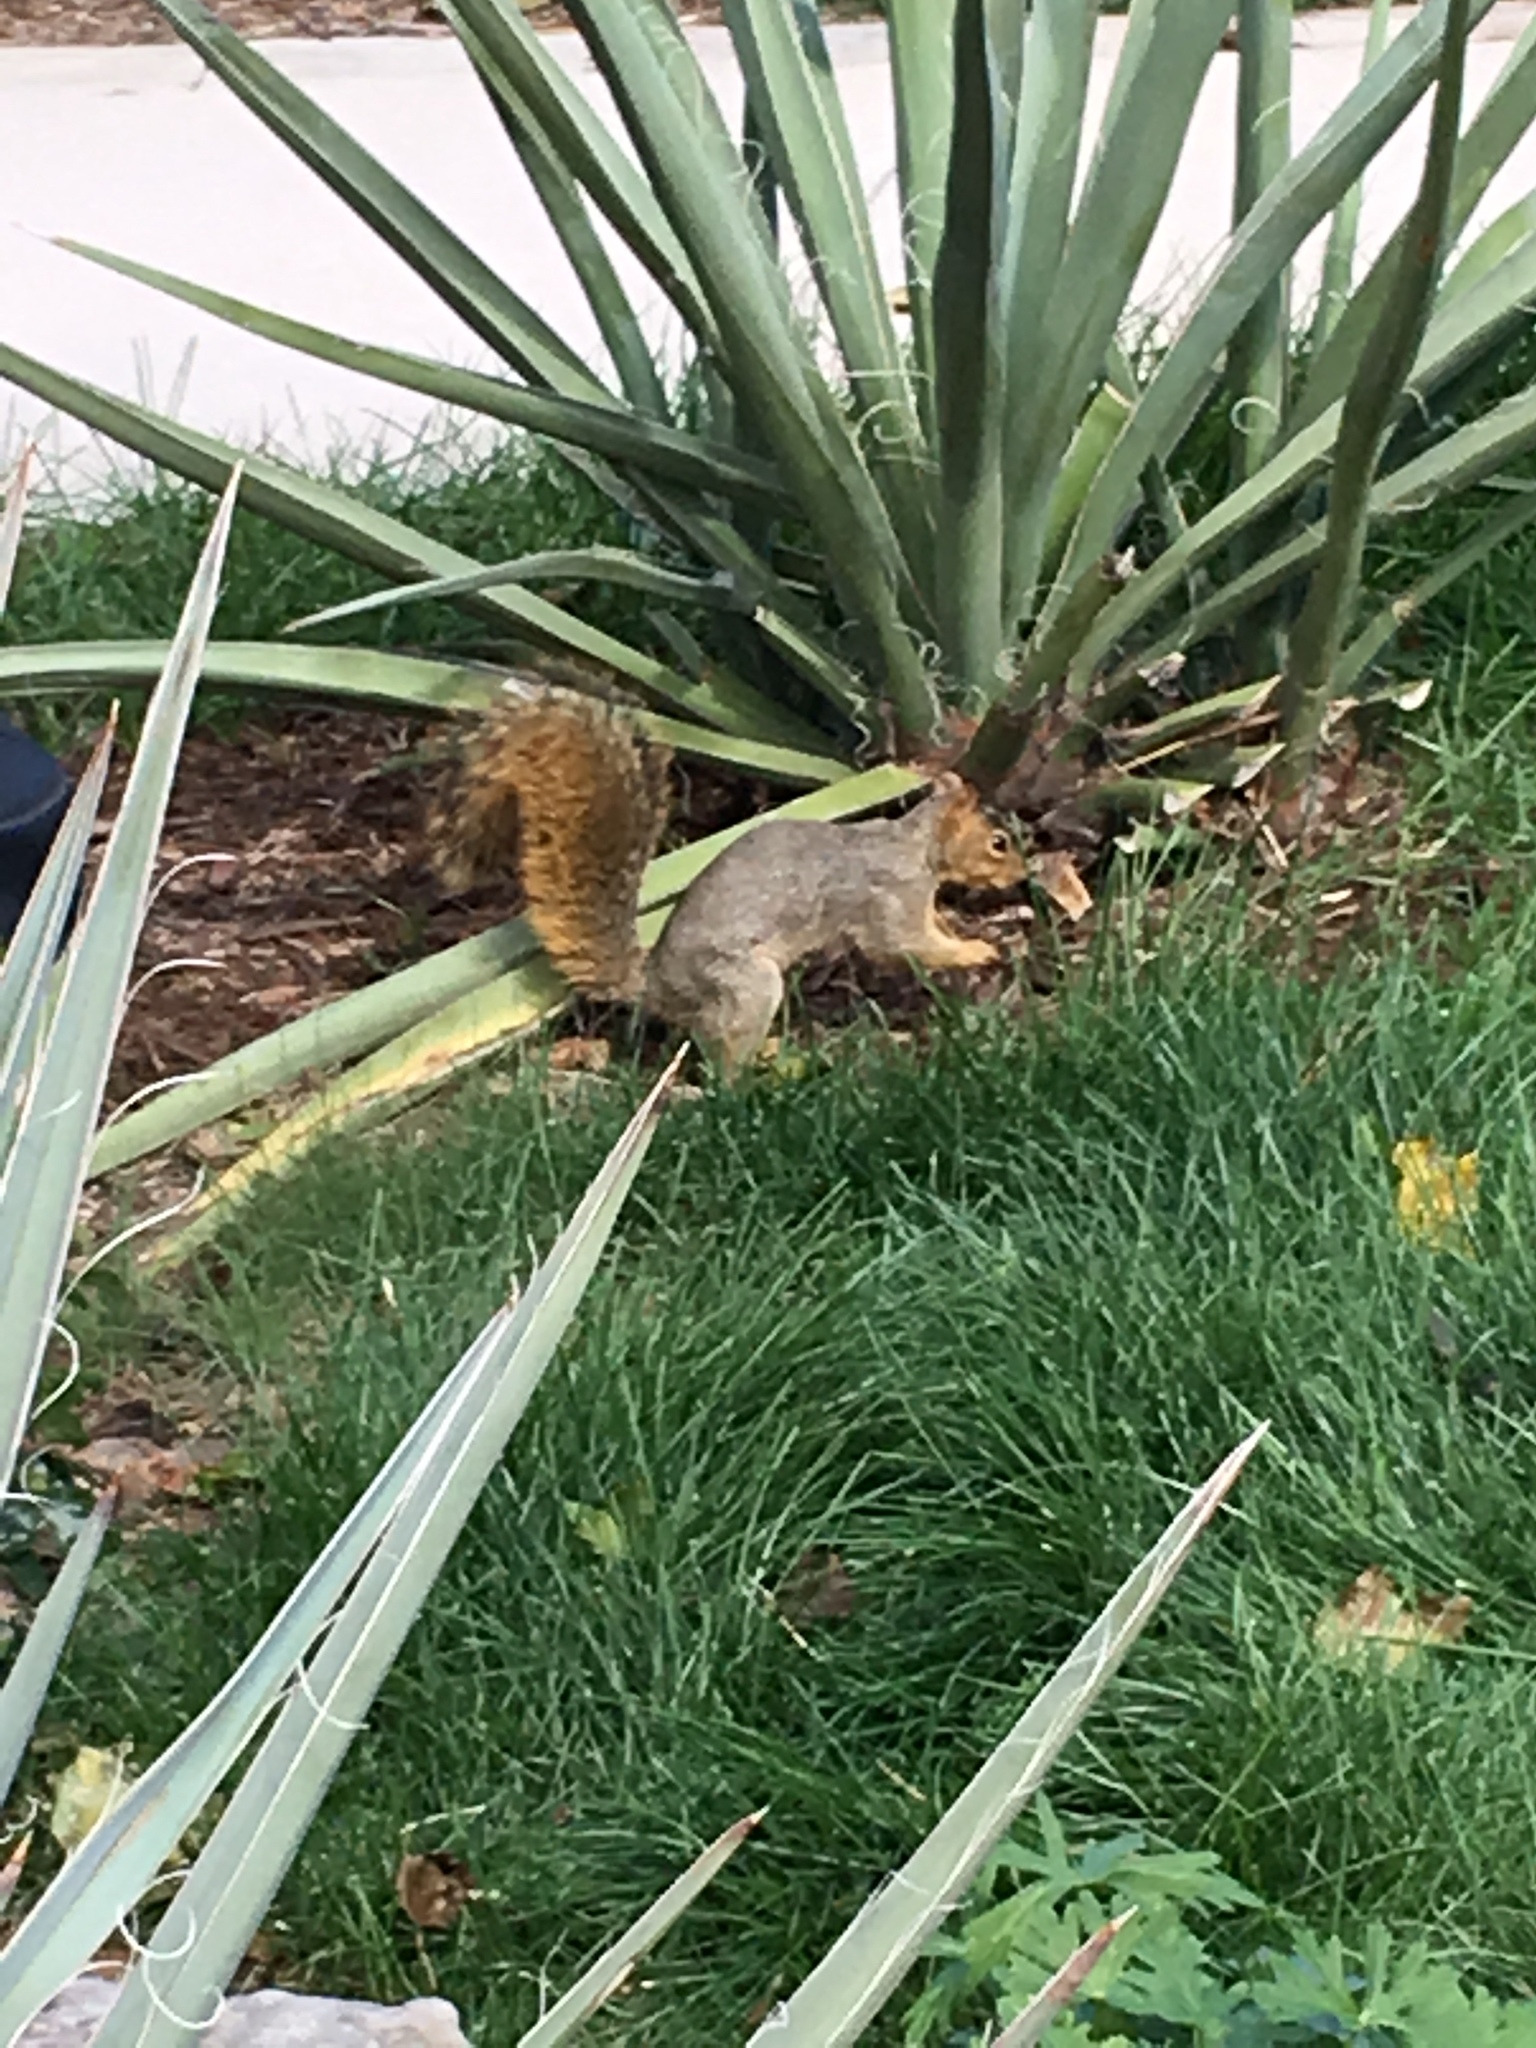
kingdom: Animalia
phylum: Chordata
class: Mammalia
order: Rodentia
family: Sciuridae
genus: Sciurus
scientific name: Sciurus niger
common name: Fox squirrel
